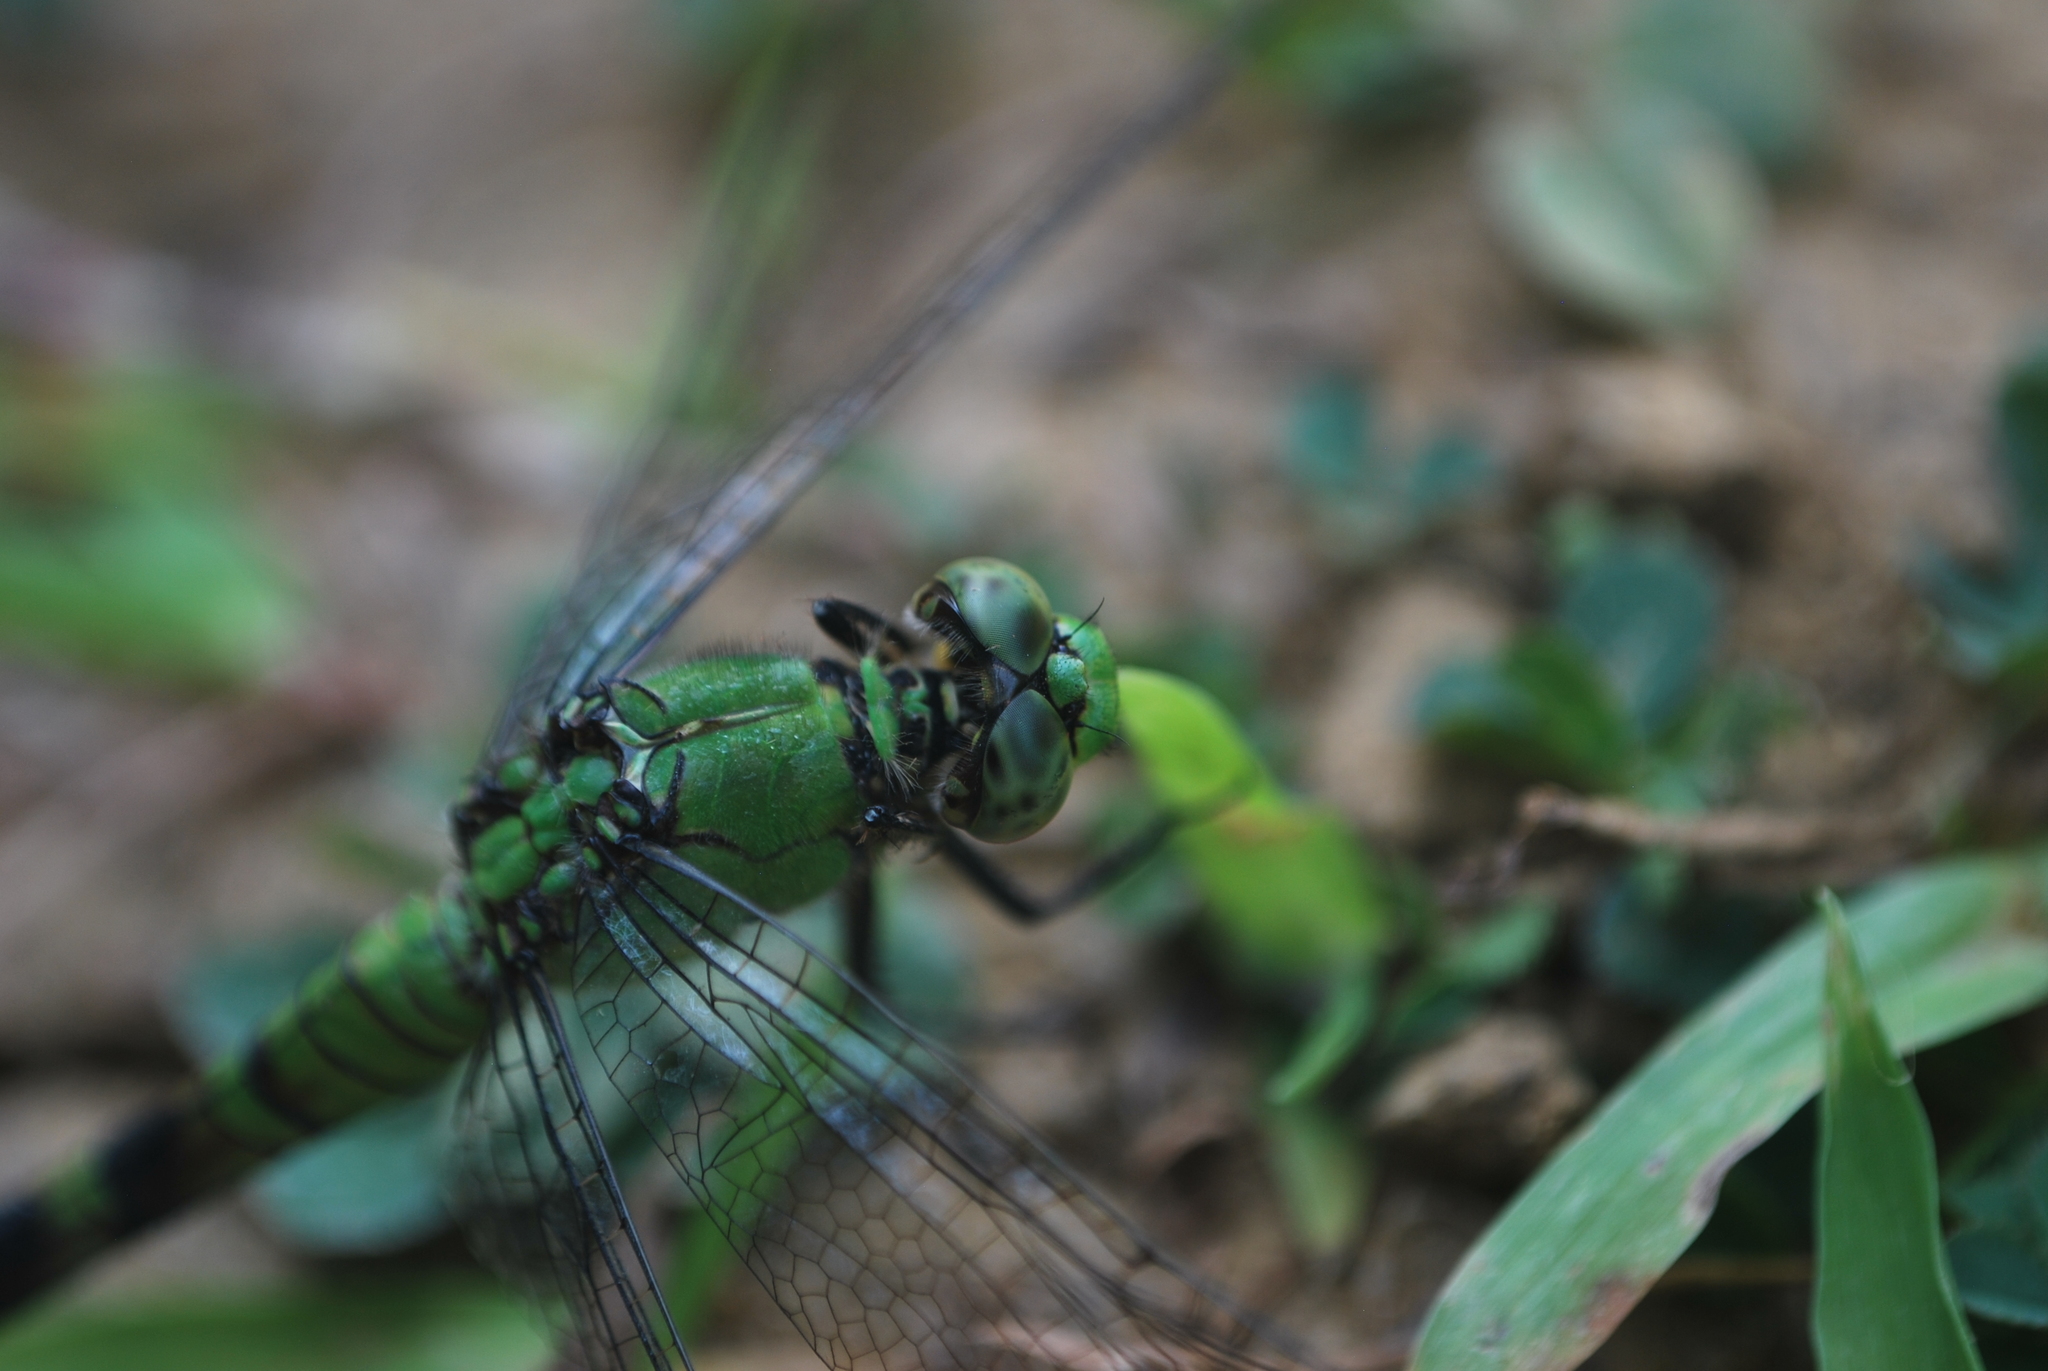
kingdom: Animalia
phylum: Arthropoda
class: Insecta
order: Odonata
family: Libellulidae
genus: Erythemis
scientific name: Erythemis simplicicollis
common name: Eastern pondhawk
